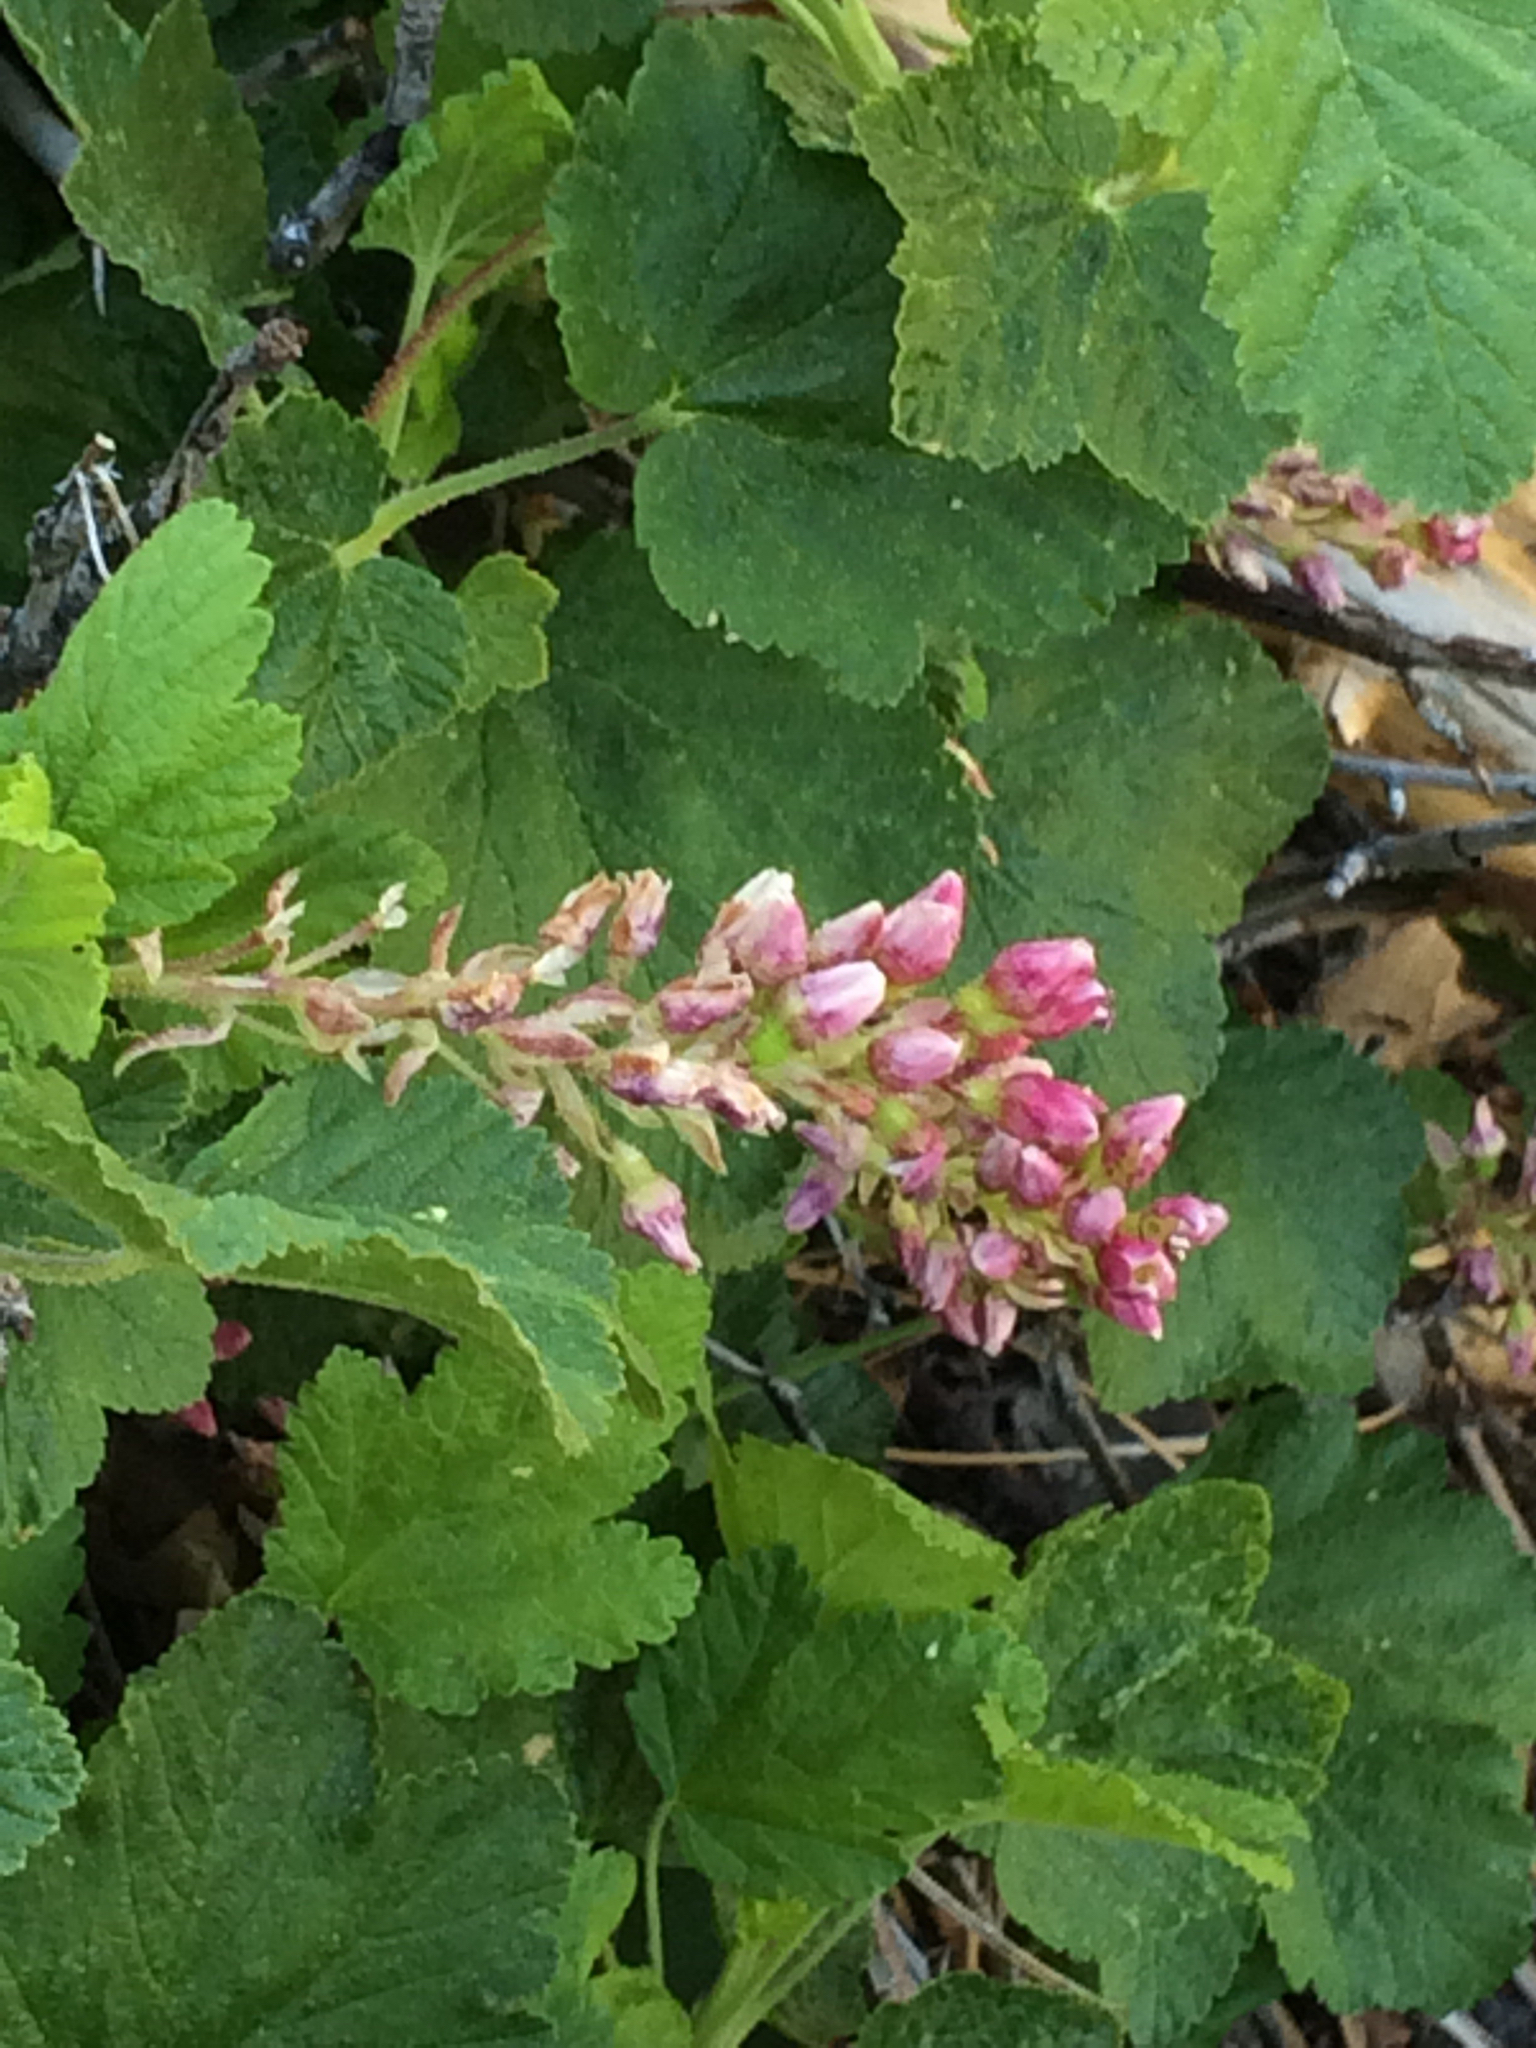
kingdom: Plantae
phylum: Tracheophyta
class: Magnoliopsida
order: Saxifragales
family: Grossulariaceae
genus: Ribes
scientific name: Ribes nevadense
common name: Mountain pink currant
